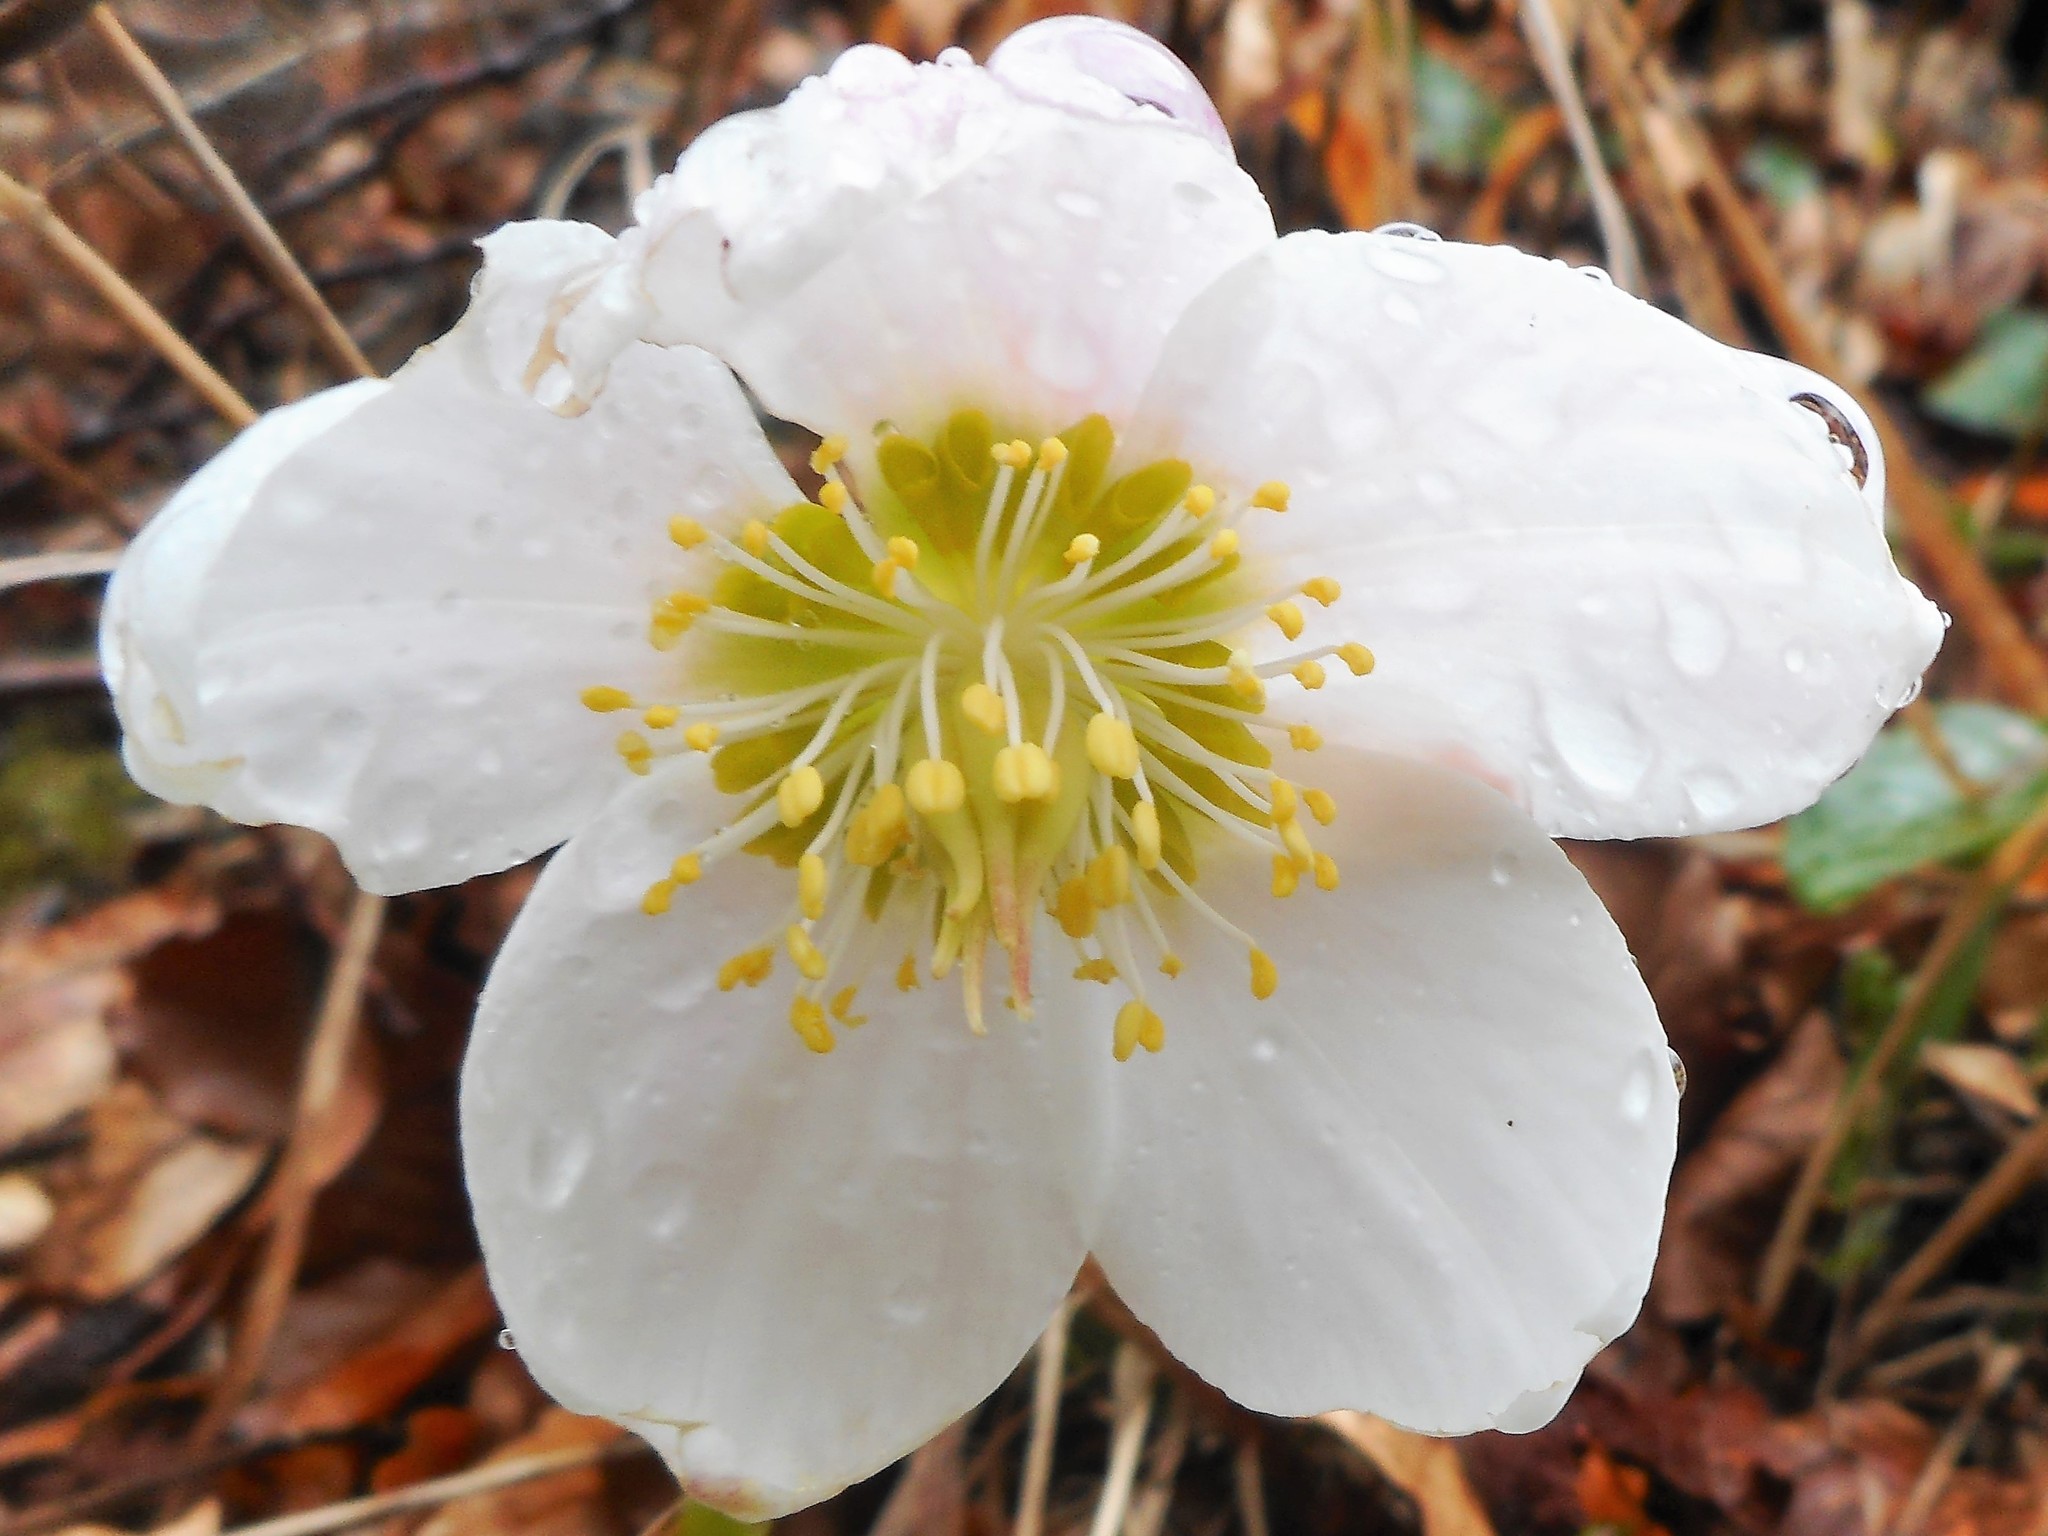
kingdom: Plantae
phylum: Tracheophyta
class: Magnoliopsida
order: Ranunculales
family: Ranunculaceae
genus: Helleborus
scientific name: Helleborus niger
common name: Black hellebore
